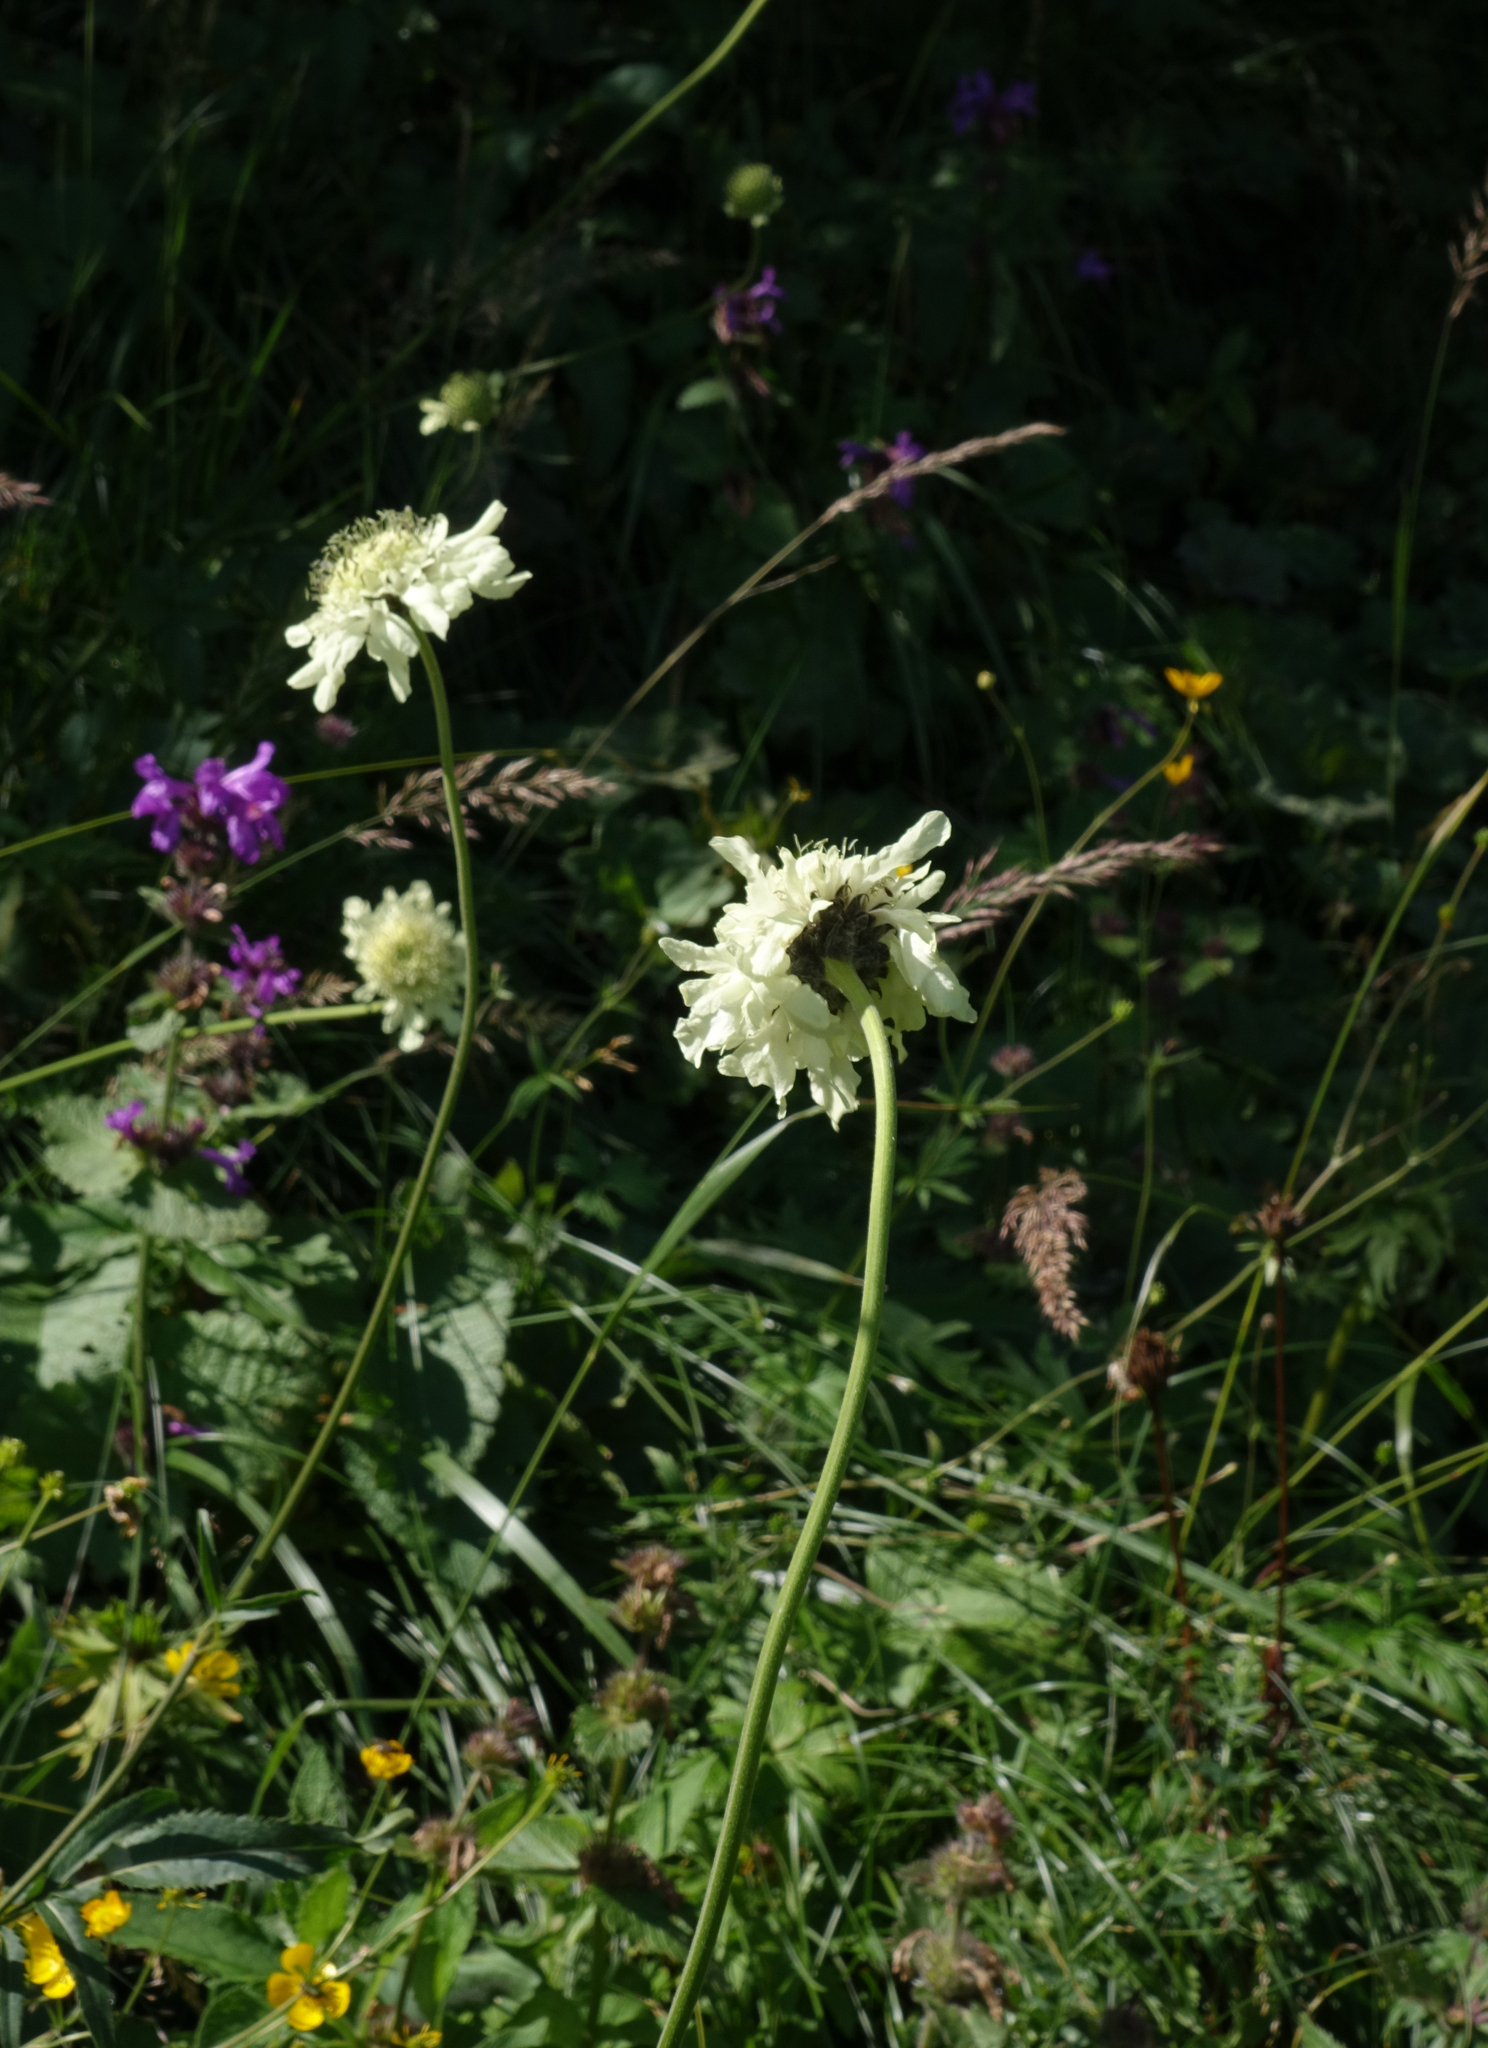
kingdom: Plantae
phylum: Tracheophyta
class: Magnoliopsida
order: Dipsacales
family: Caprifoliaceae
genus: Cephalaria
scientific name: Cephalaria gigantea
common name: Tatarian cephalaria
